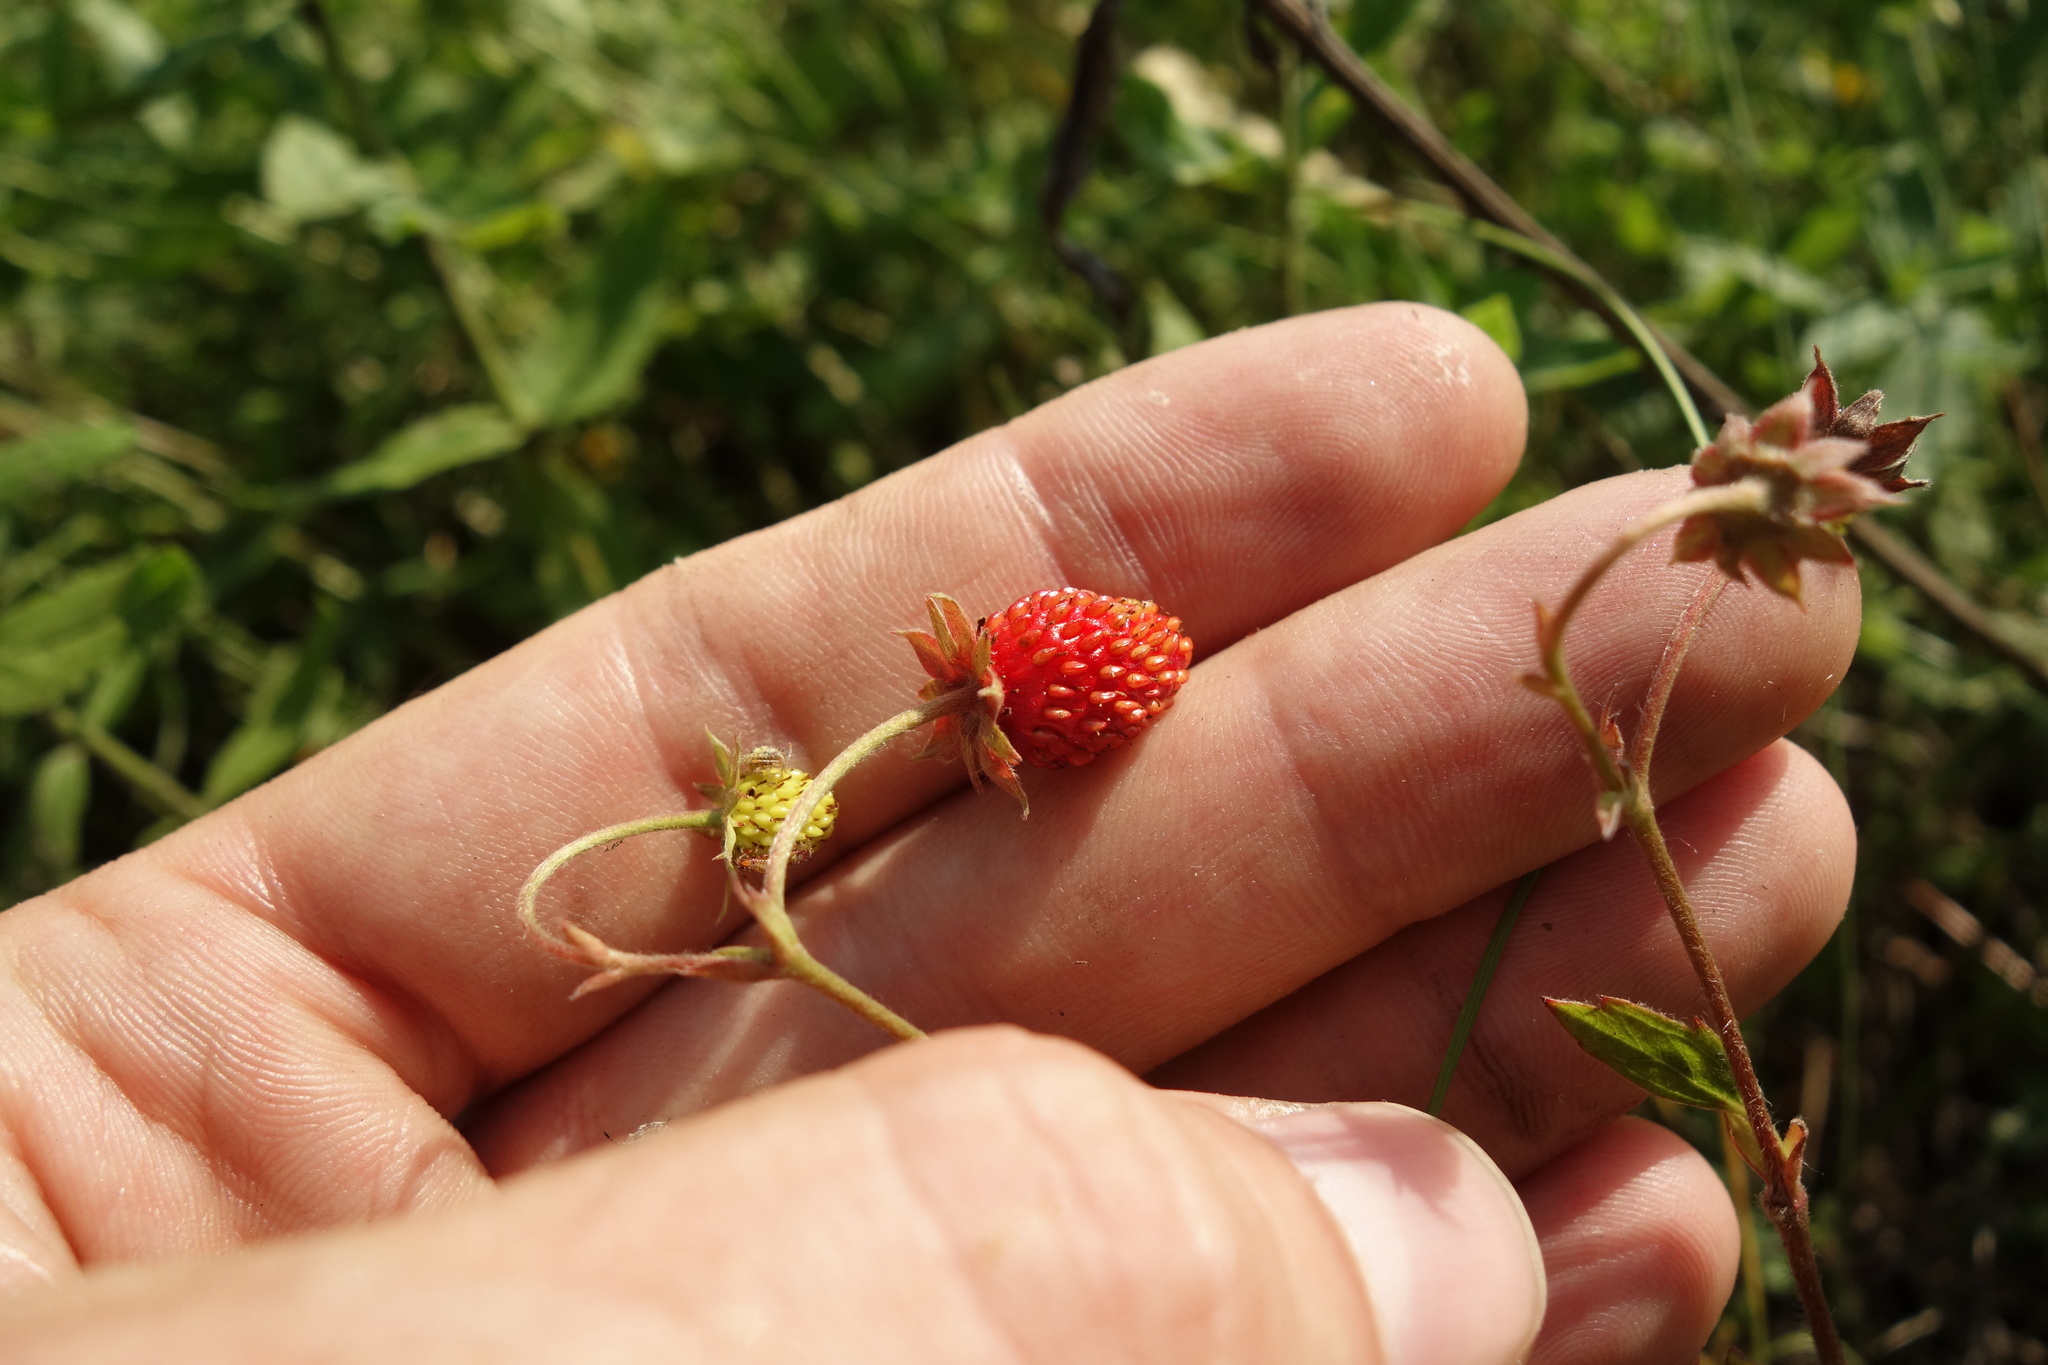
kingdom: Plantae
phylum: Tracheophyta
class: Magnoliopsida
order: Rosales
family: Rosaceae
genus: Fragaria
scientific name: Fragaria vesca
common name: Wild strawberry
